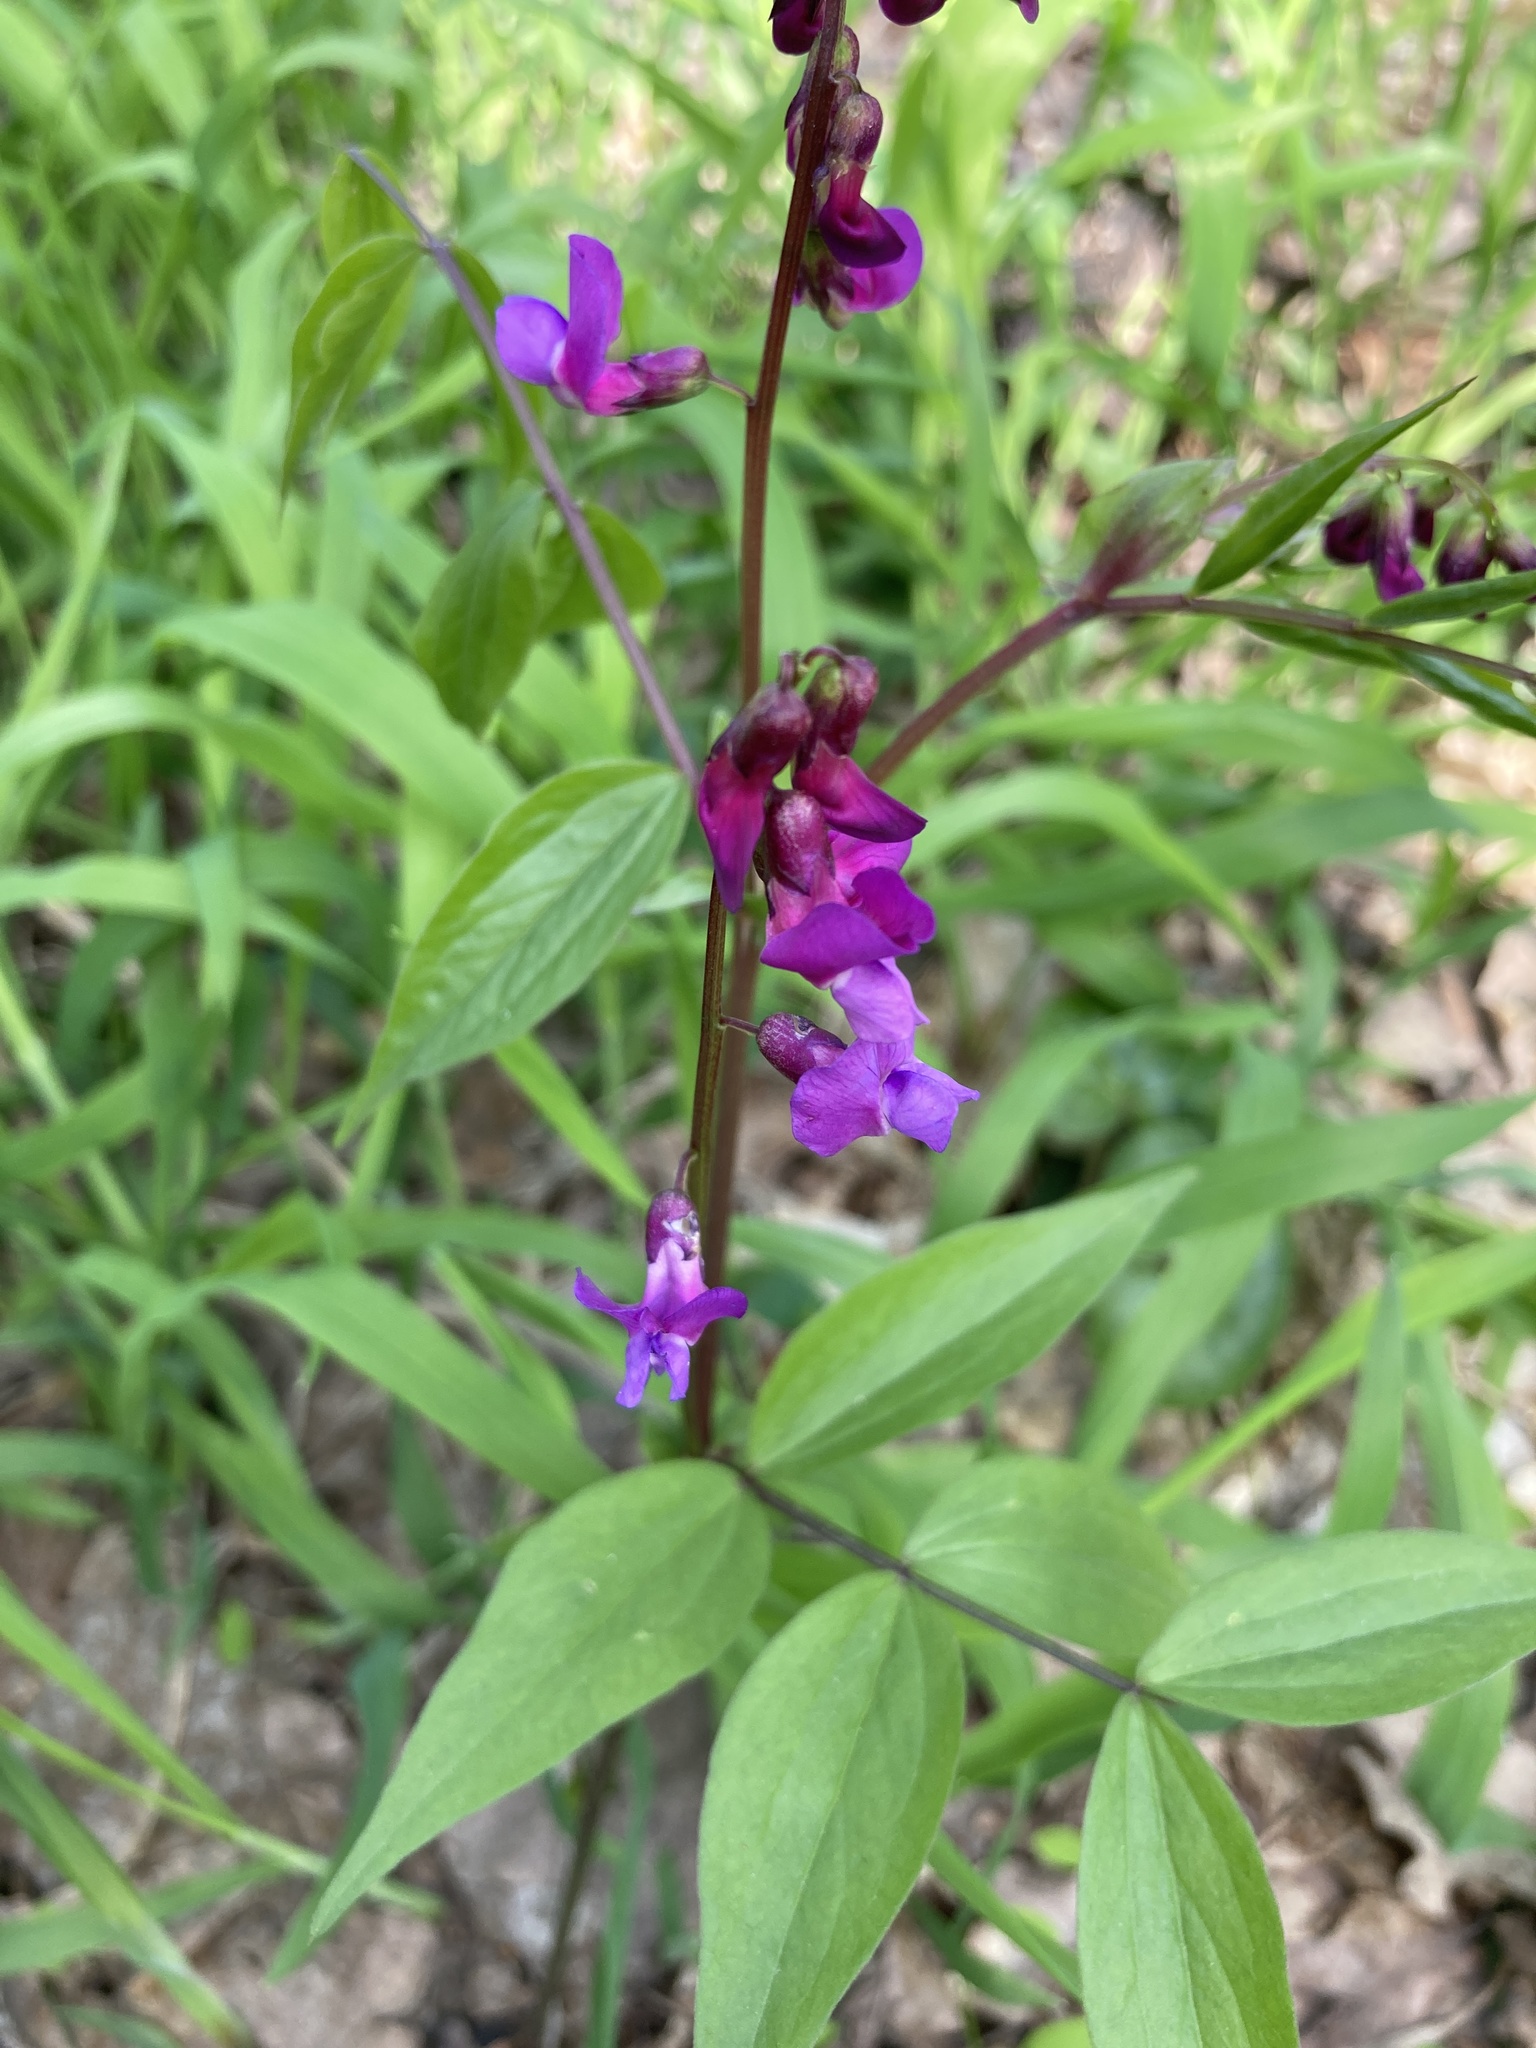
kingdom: Plantae
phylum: Tracheophyta
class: Magnoliopsida
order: Fabales
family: Fabaceae
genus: Lathyrus
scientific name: Lathyrus vernus
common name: Spring pea
